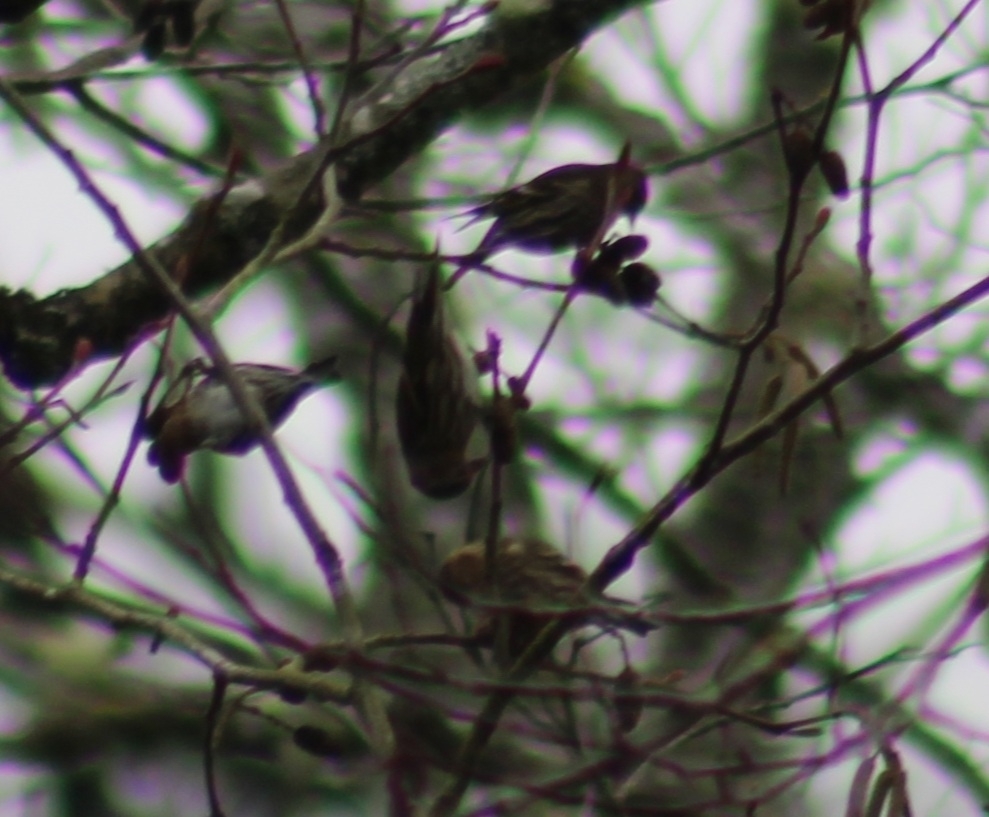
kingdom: Animalia
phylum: Chordata
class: Aves
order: Passeriformes
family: Fringillidae
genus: Spinus
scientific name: Spinus pinus
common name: Pine siskin
